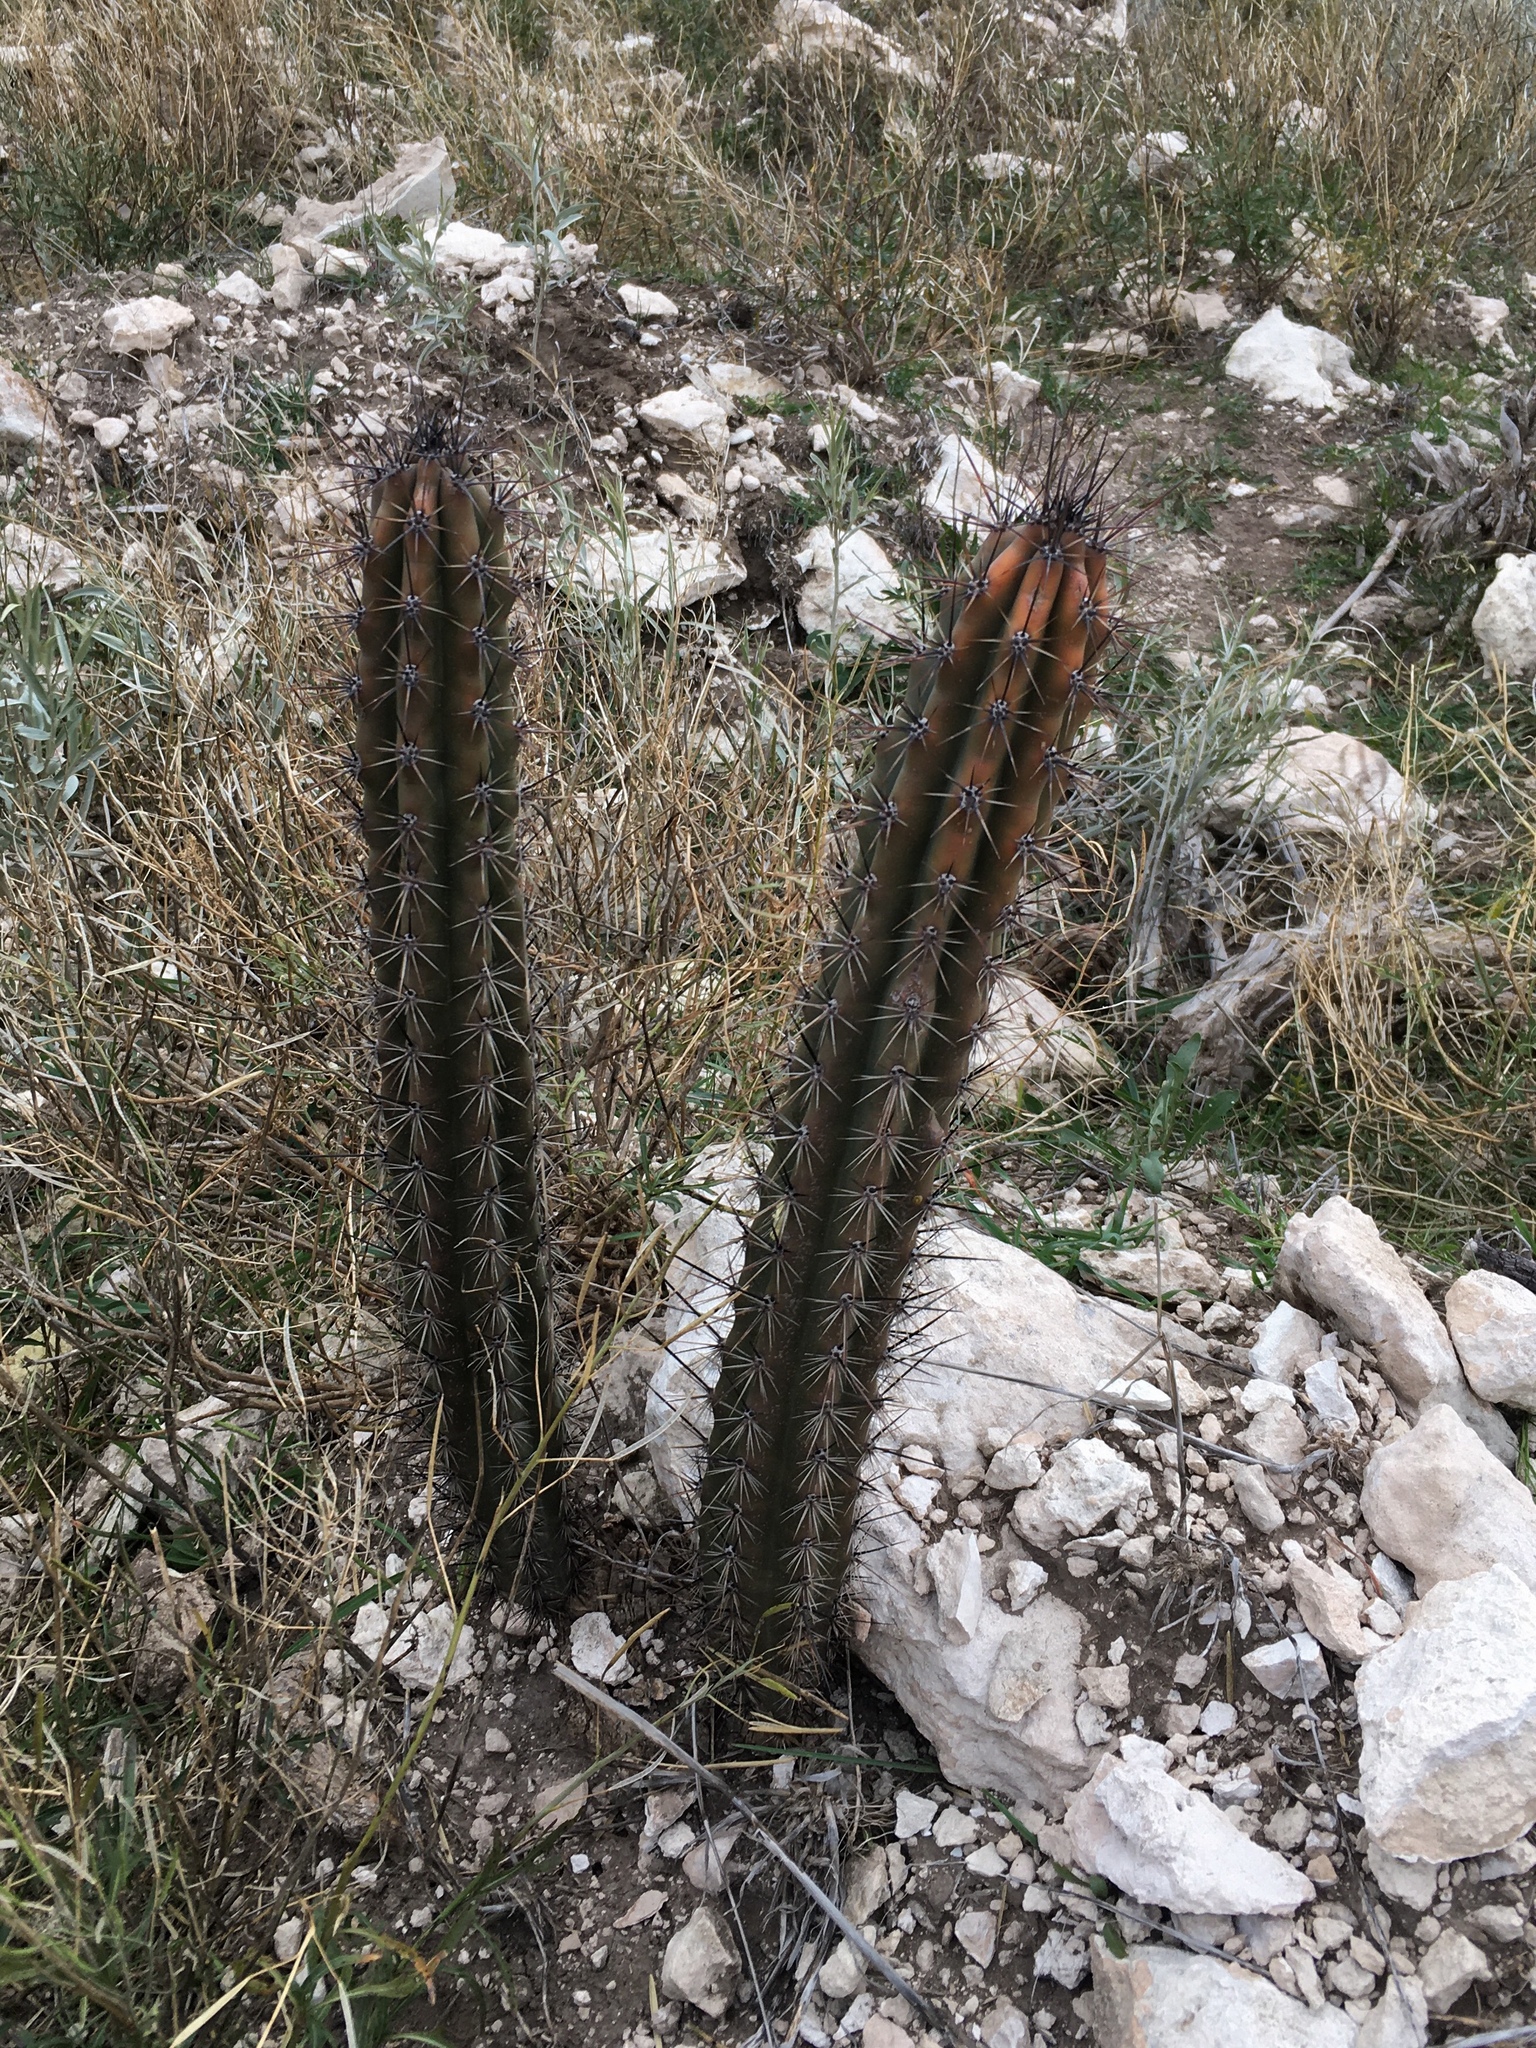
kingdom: Plantae
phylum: Tracheophyta
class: Magnoliopsida
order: Caryophyllales
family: Cactaceae
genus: Cereus
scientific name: Cereus aethiops
